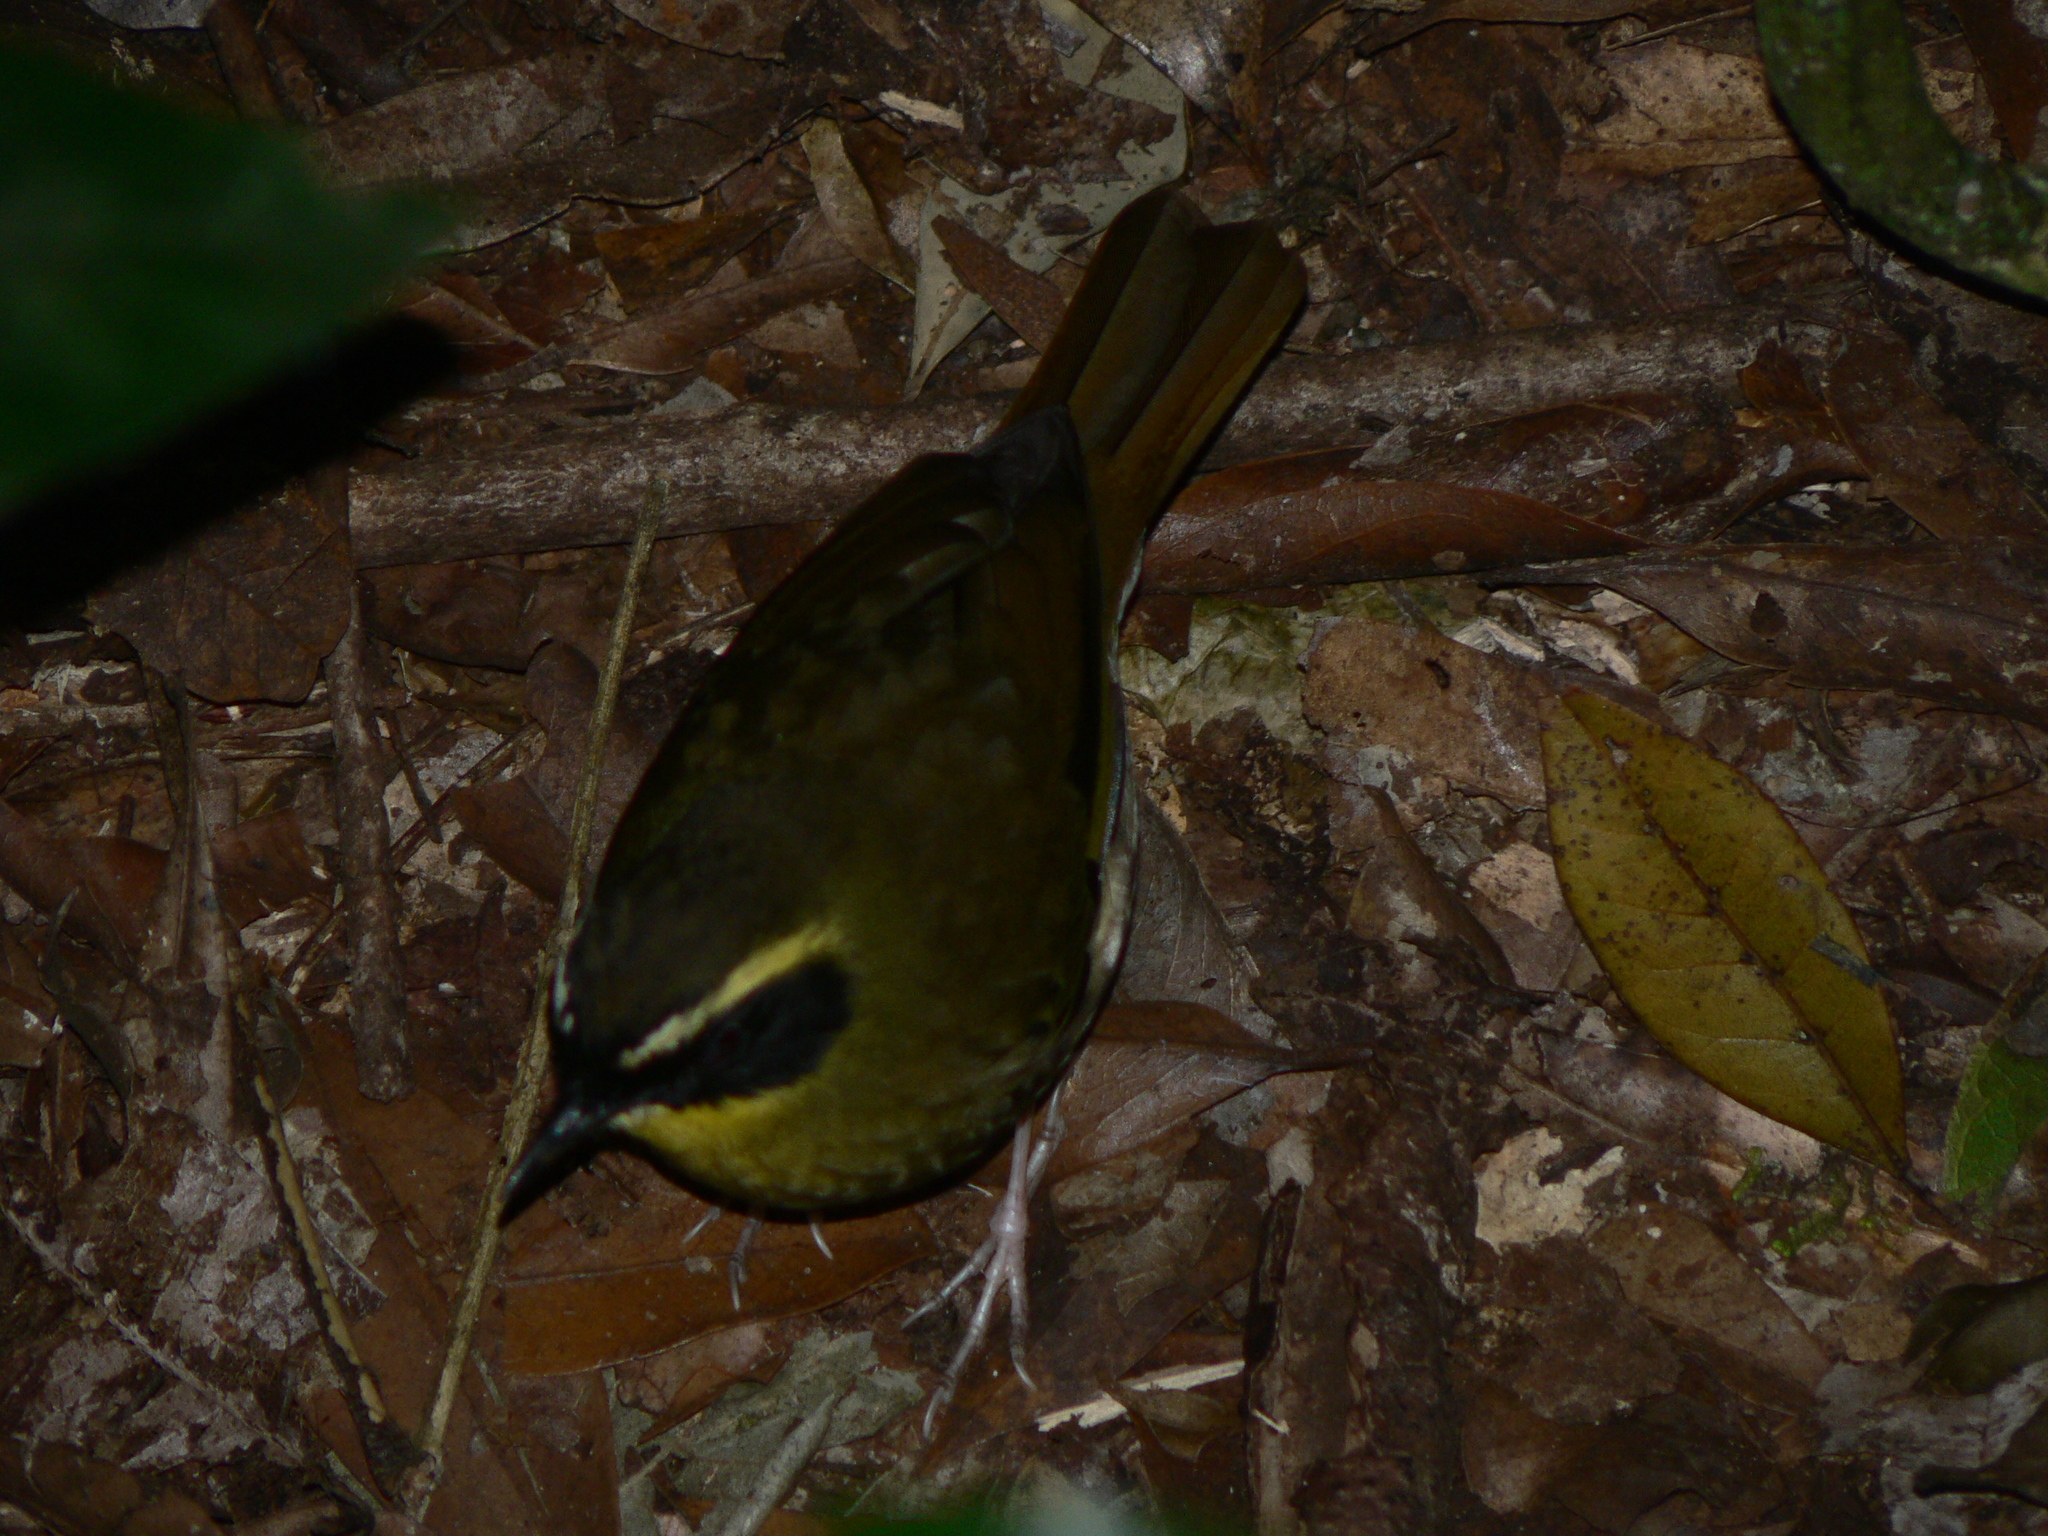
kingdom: Animalia
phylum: Chordata
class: Aves
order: Passeriformes
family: Acanthizidae
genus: Sericornis
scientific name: Sericornis citreogularis
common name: Yellow-throated scrubwren
